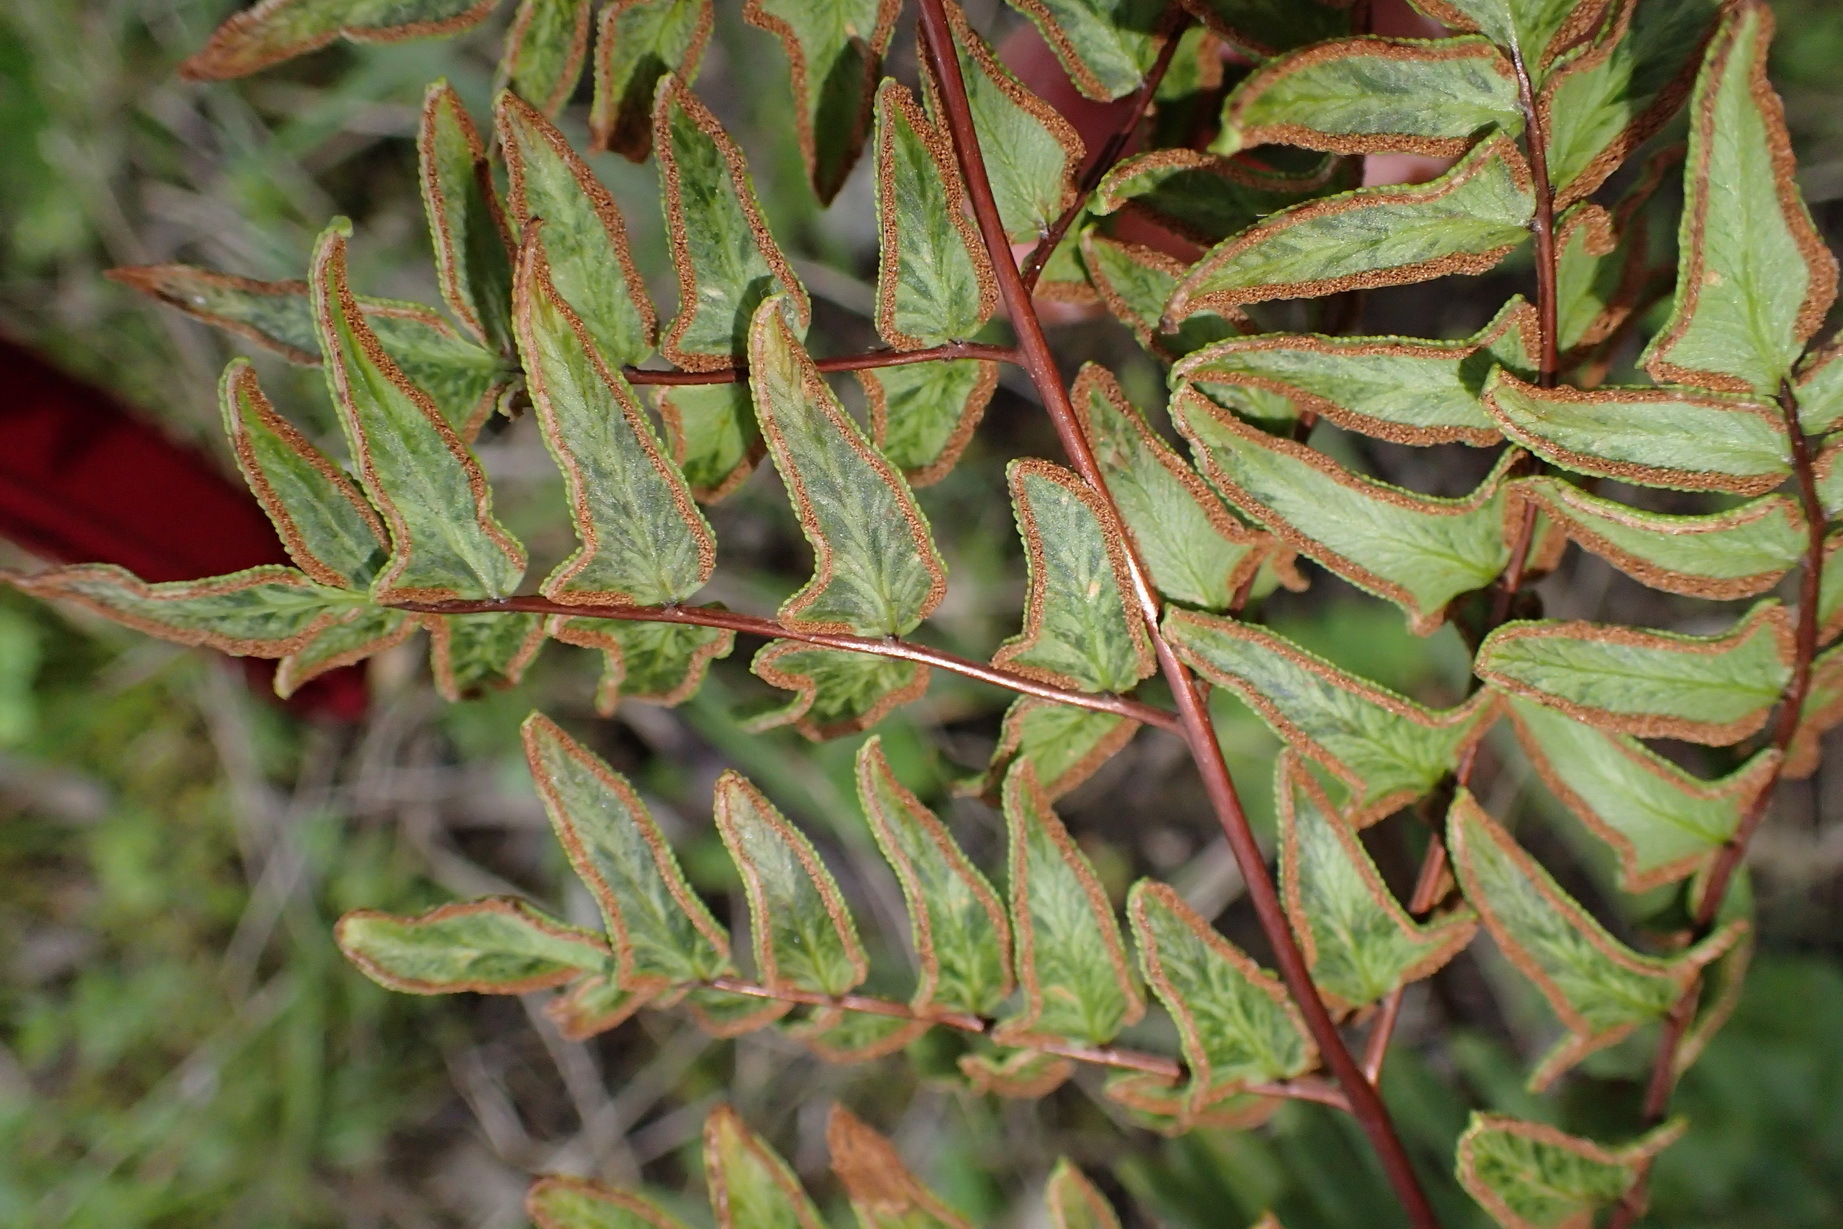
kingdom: Plantae
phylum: Tracheophyta
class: Polypodiopsida
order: Polypodiales
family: Pteridaceae
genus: Cheilanthes
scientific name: Cheilanthes viridis
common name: Green cliffbrake
